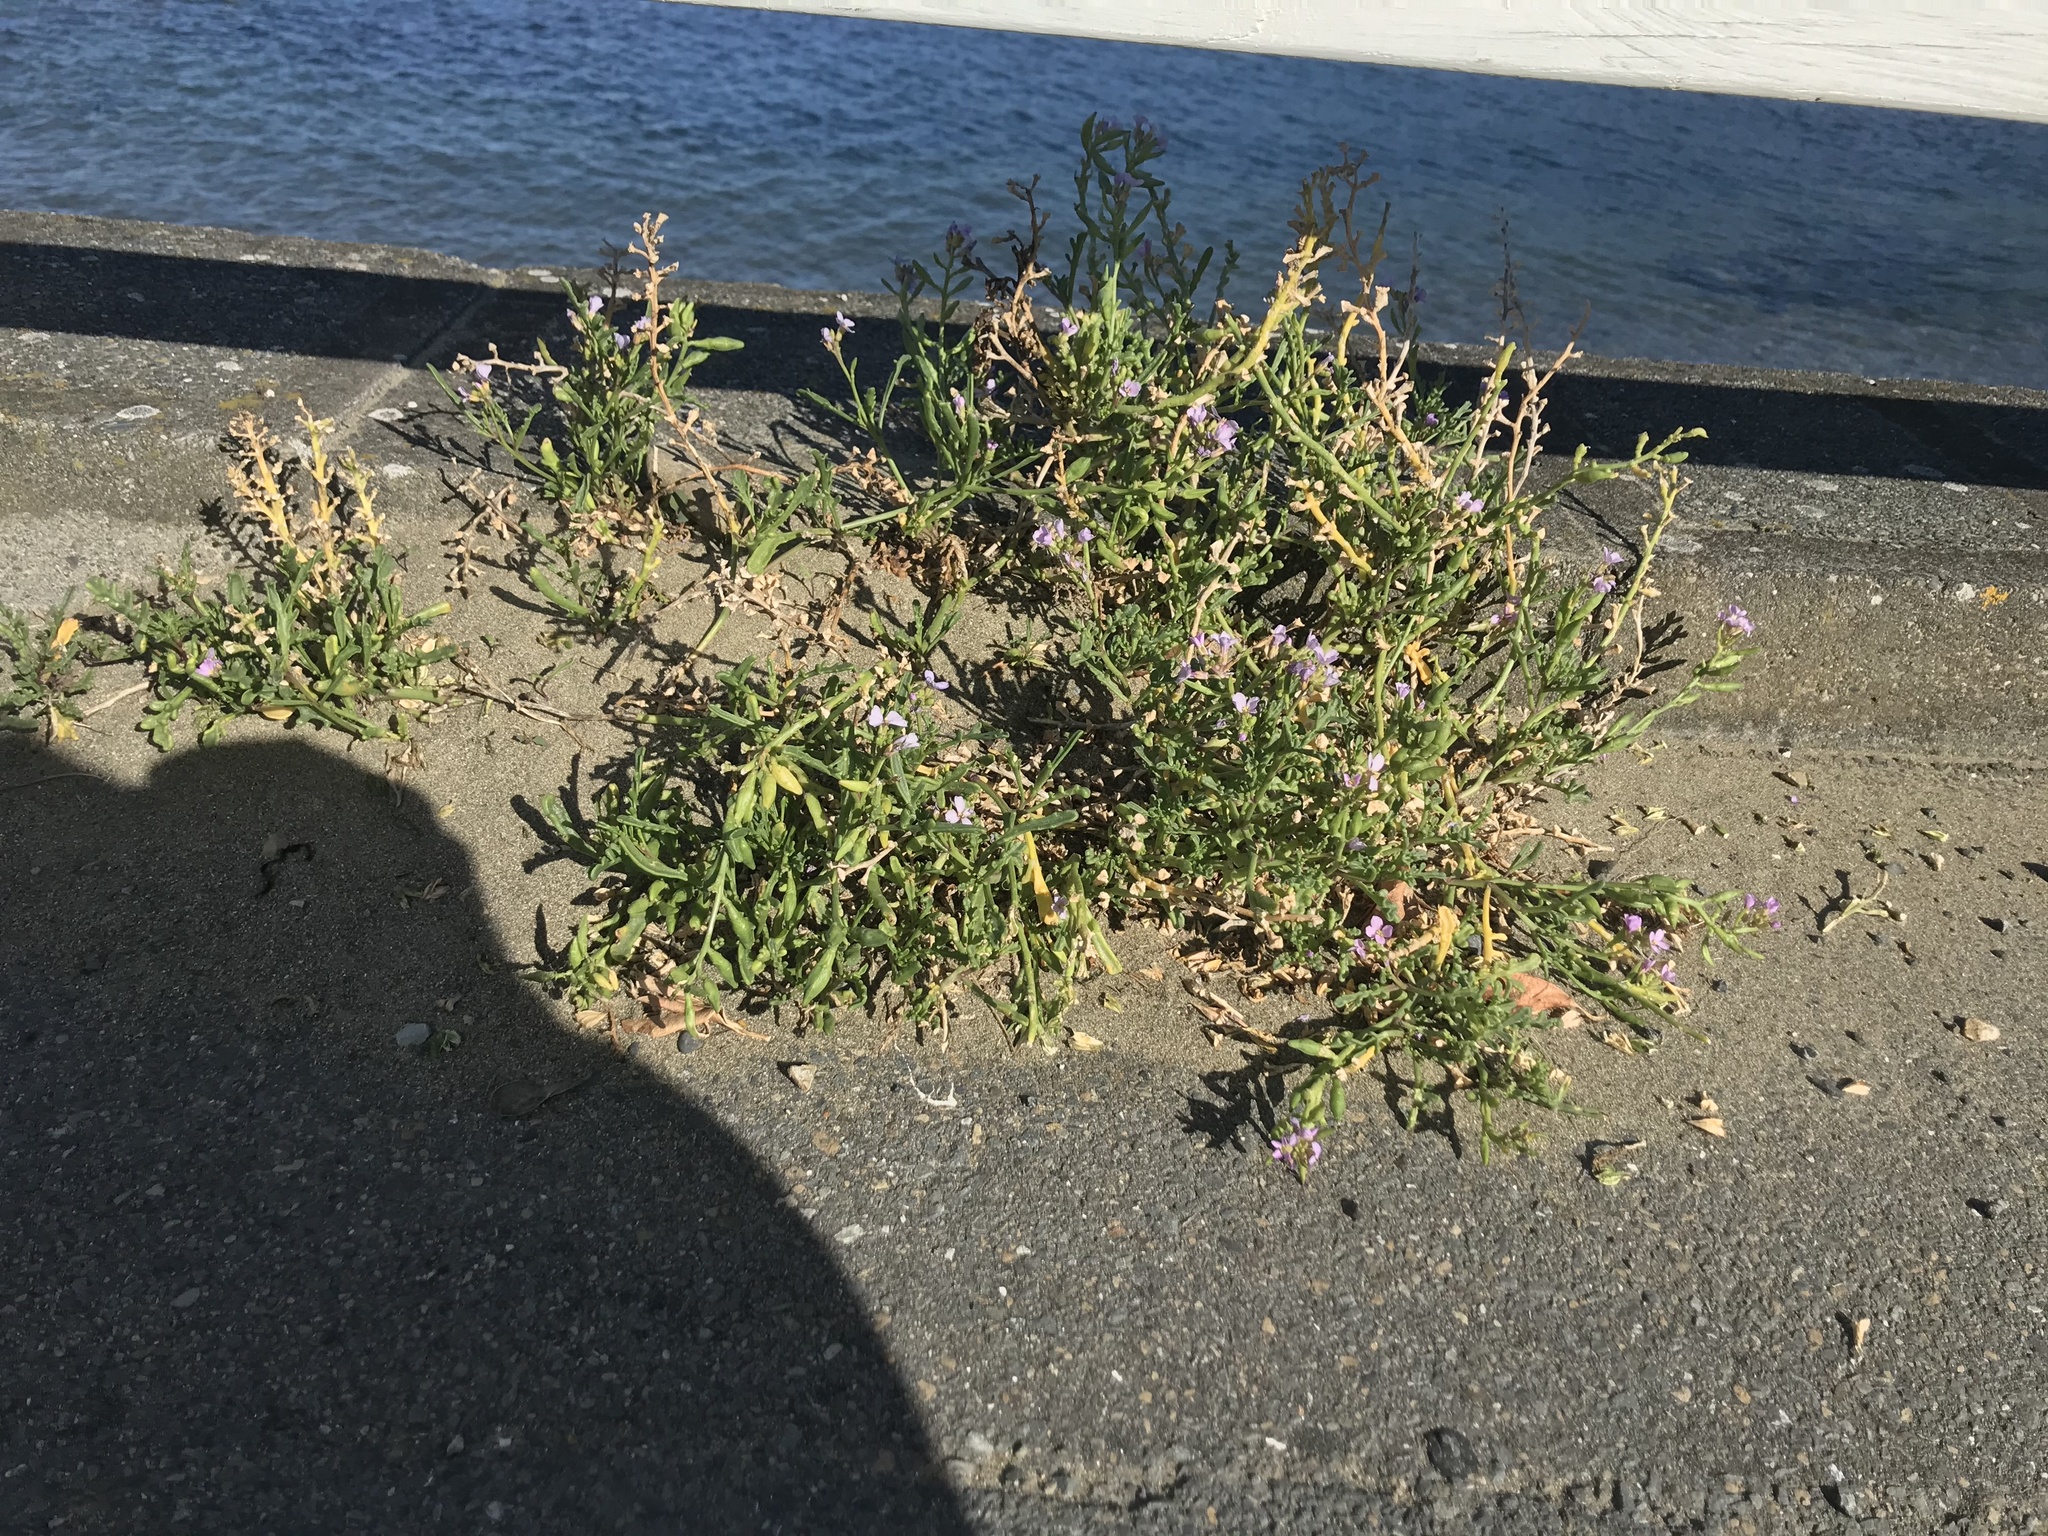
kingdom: Plantae
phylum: Tracheophyta
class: Magnoliopsida
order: Brassicales
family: Brassicaceae
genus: Cakile
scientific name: Cakile maritima
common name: Sea rocket
